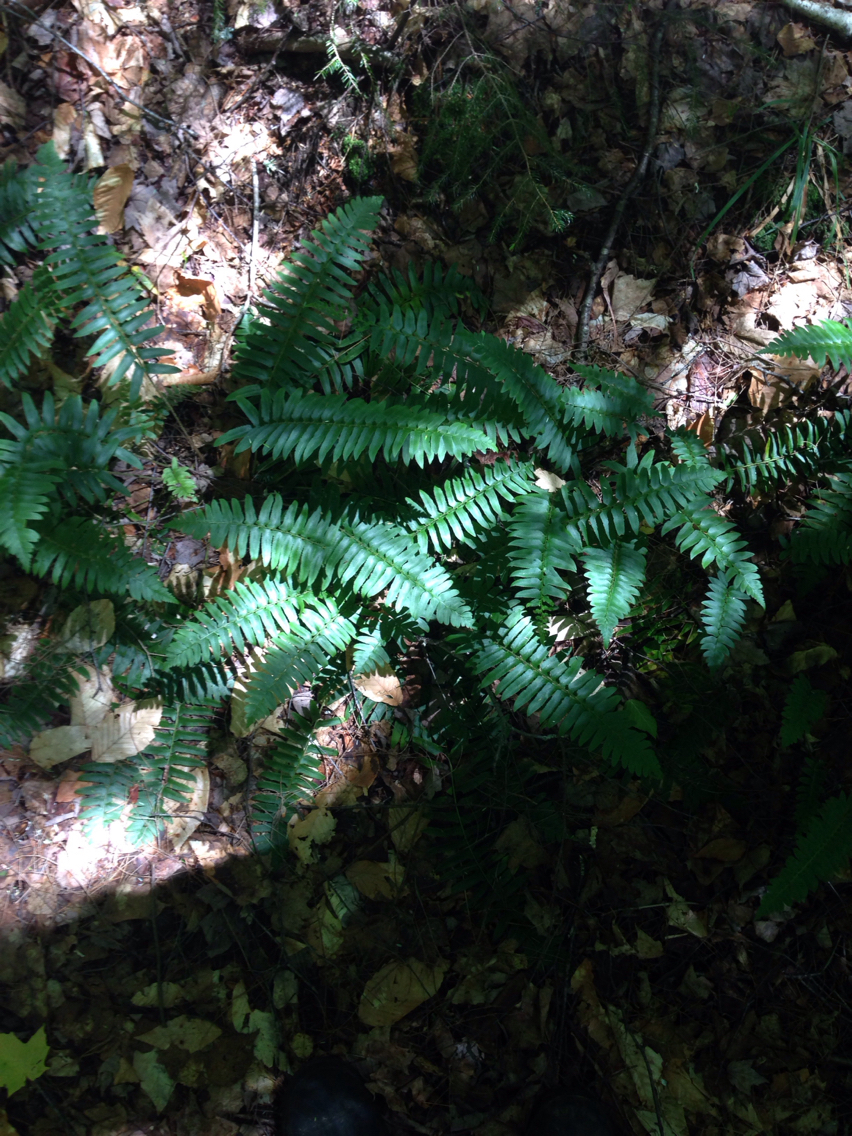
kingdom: Plantae
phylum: Tracheophyta
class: Polypodiopsida
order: Polypodiales
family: Dryopteridaceae
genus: Polystichum
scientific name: Polystichum acrostichoides
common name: Christmas fern
